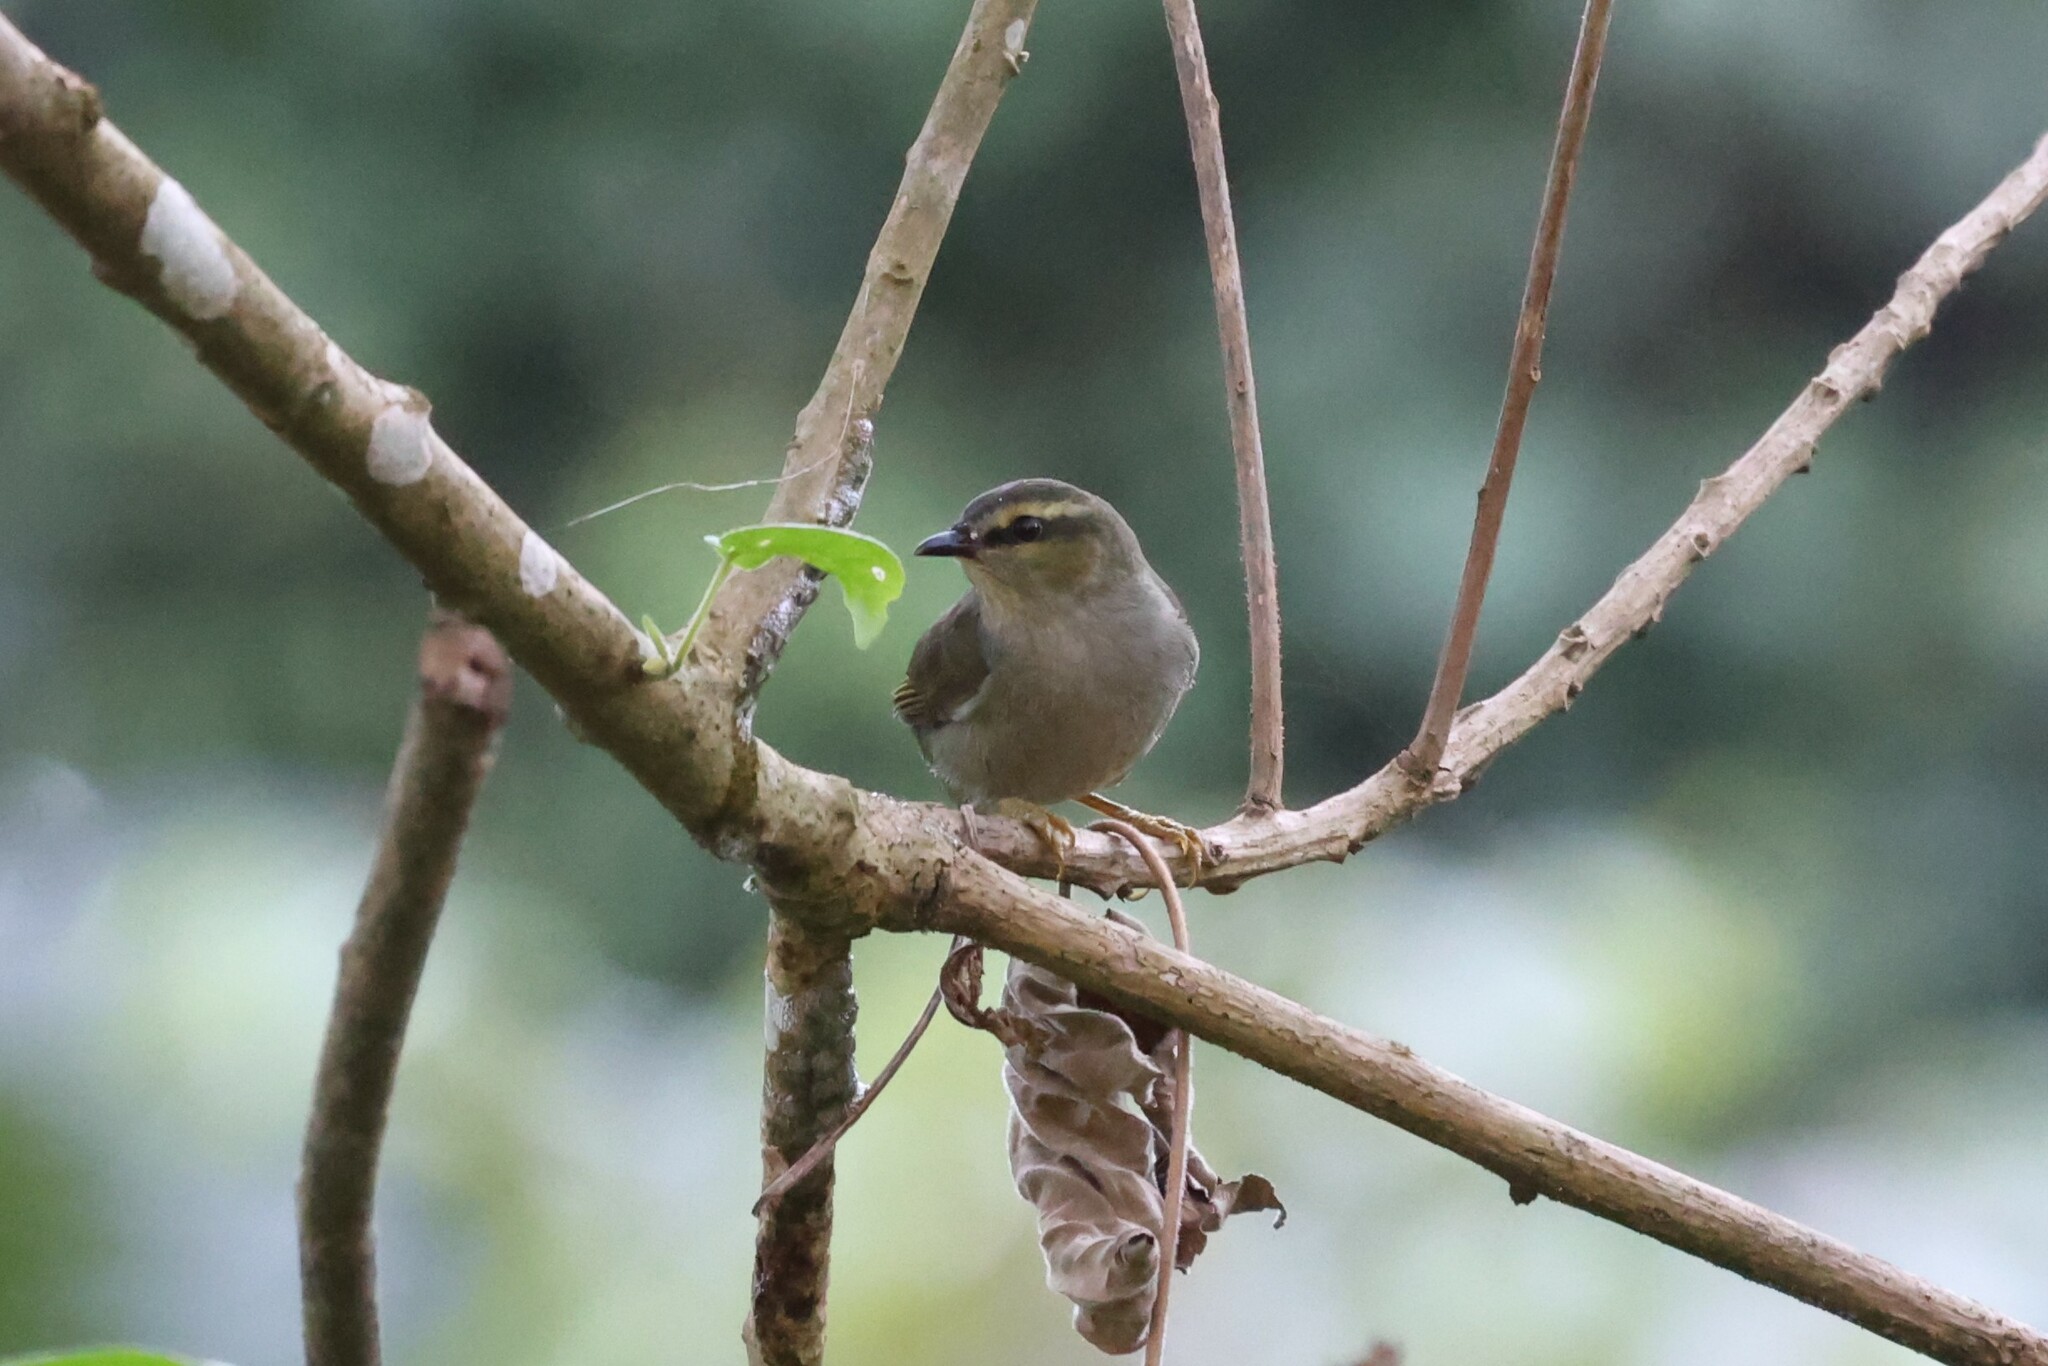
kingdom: Animalia
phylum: Chordata
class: Aves
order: Passeriformes
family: Cettiidae
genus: Hylia
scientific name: Hylia prasina
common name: Green hylia
